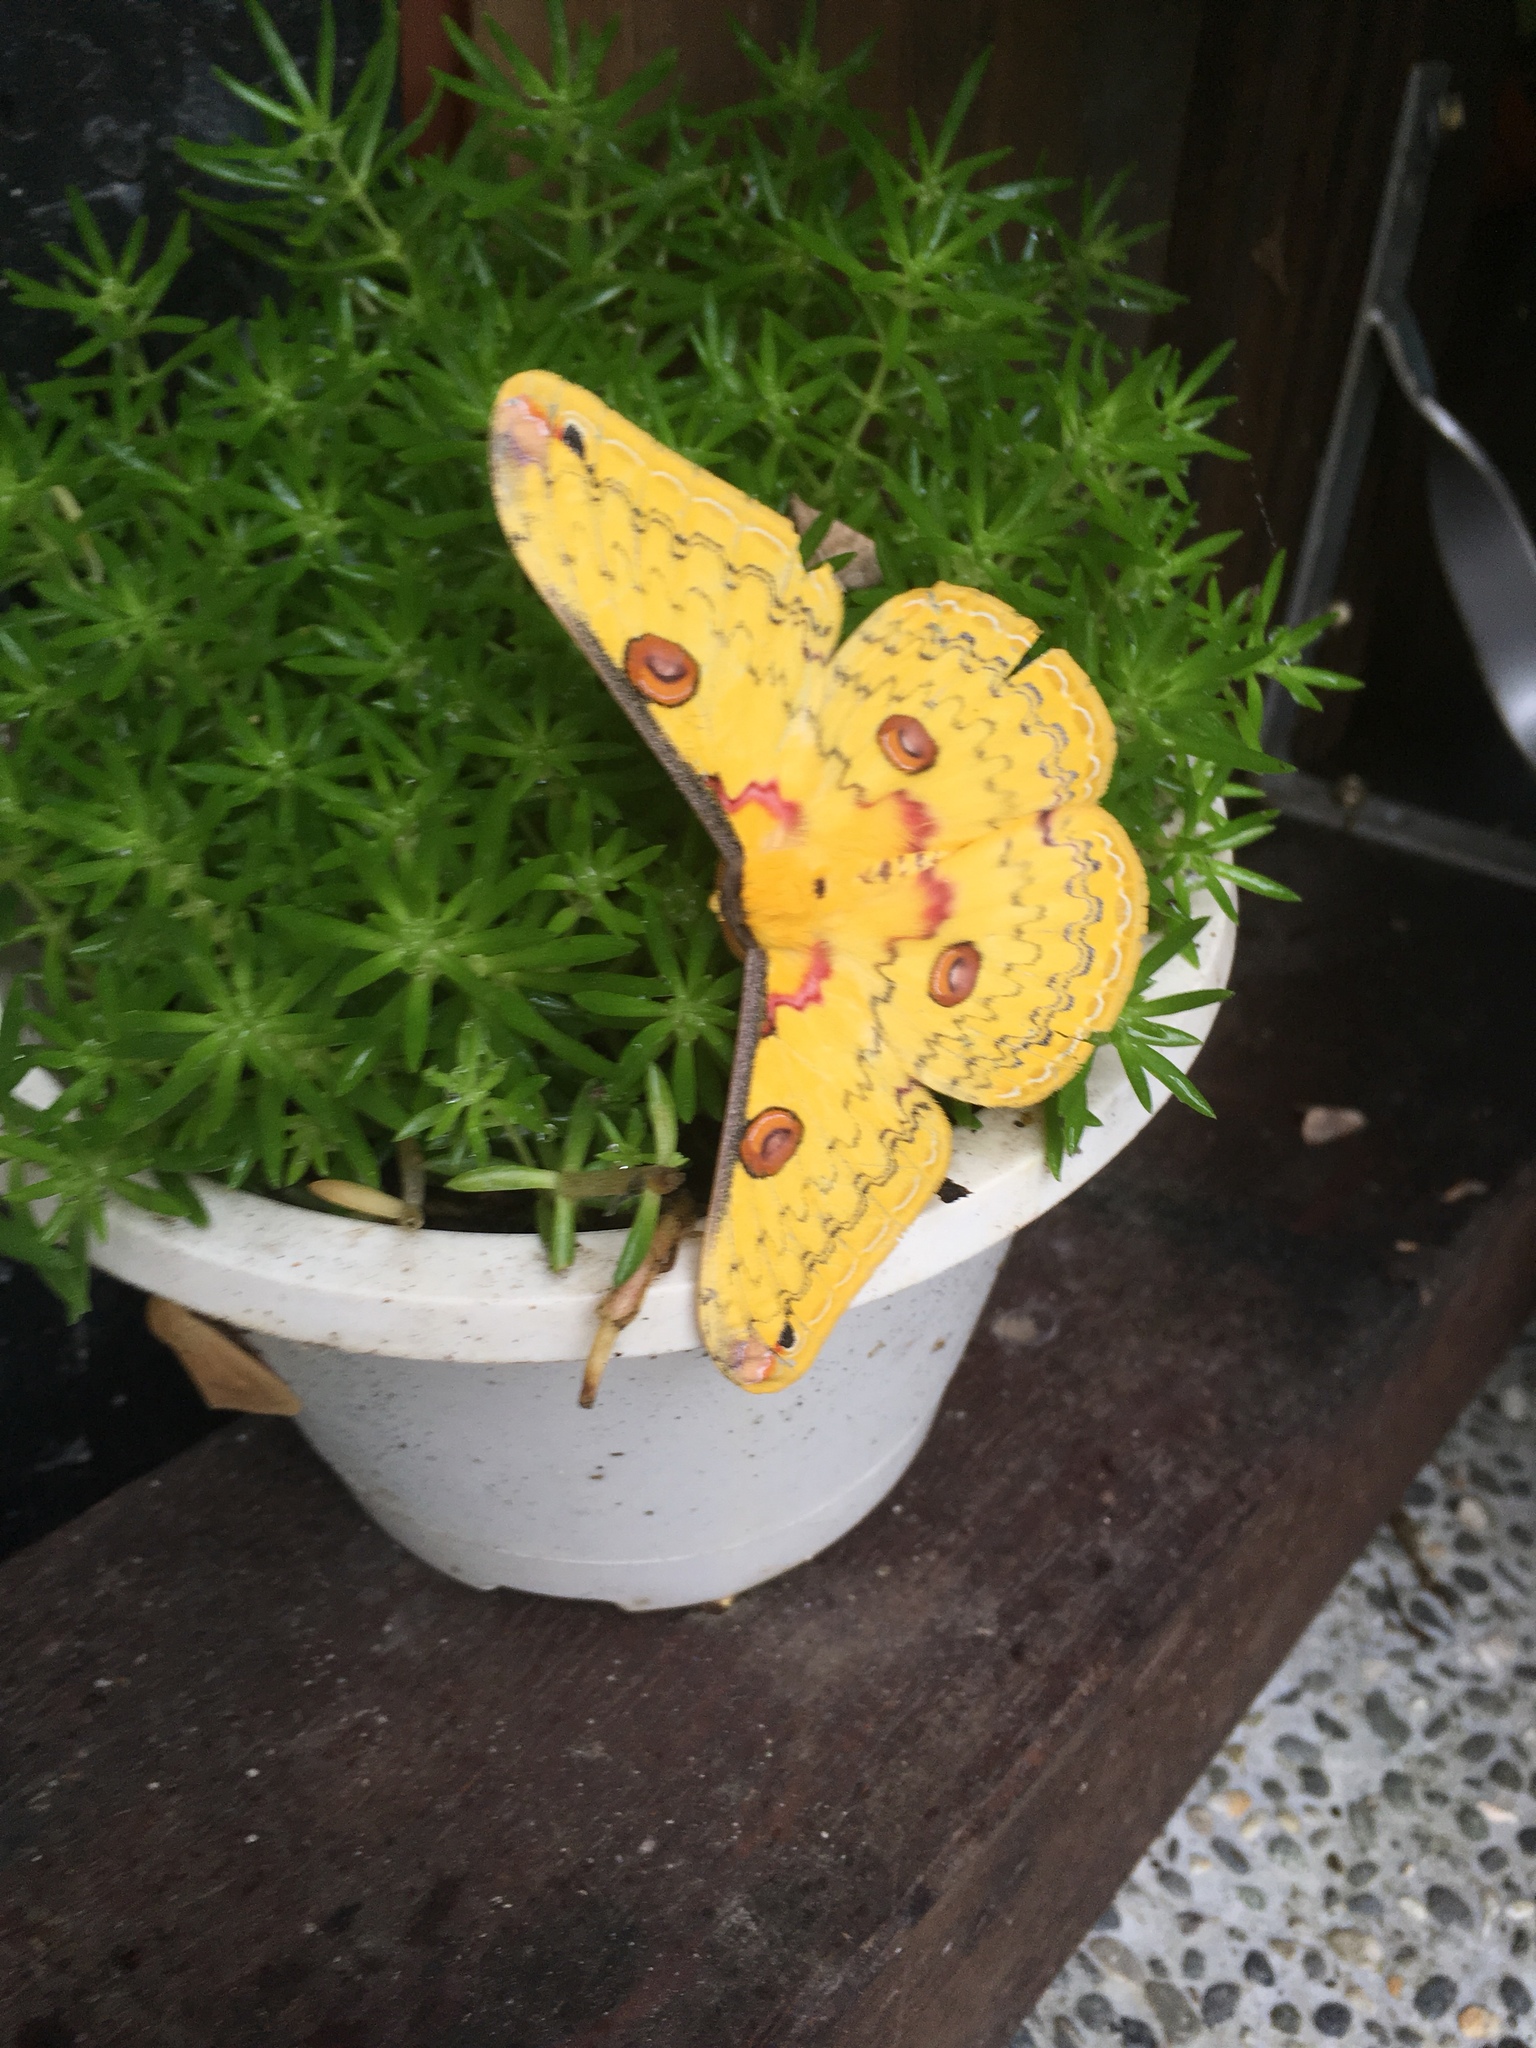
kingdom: Animalia
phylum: Arthropoda
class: Insecta
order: Lepidoptera
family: Saturniidae
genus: Loepa
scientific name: Loepa formosensis
